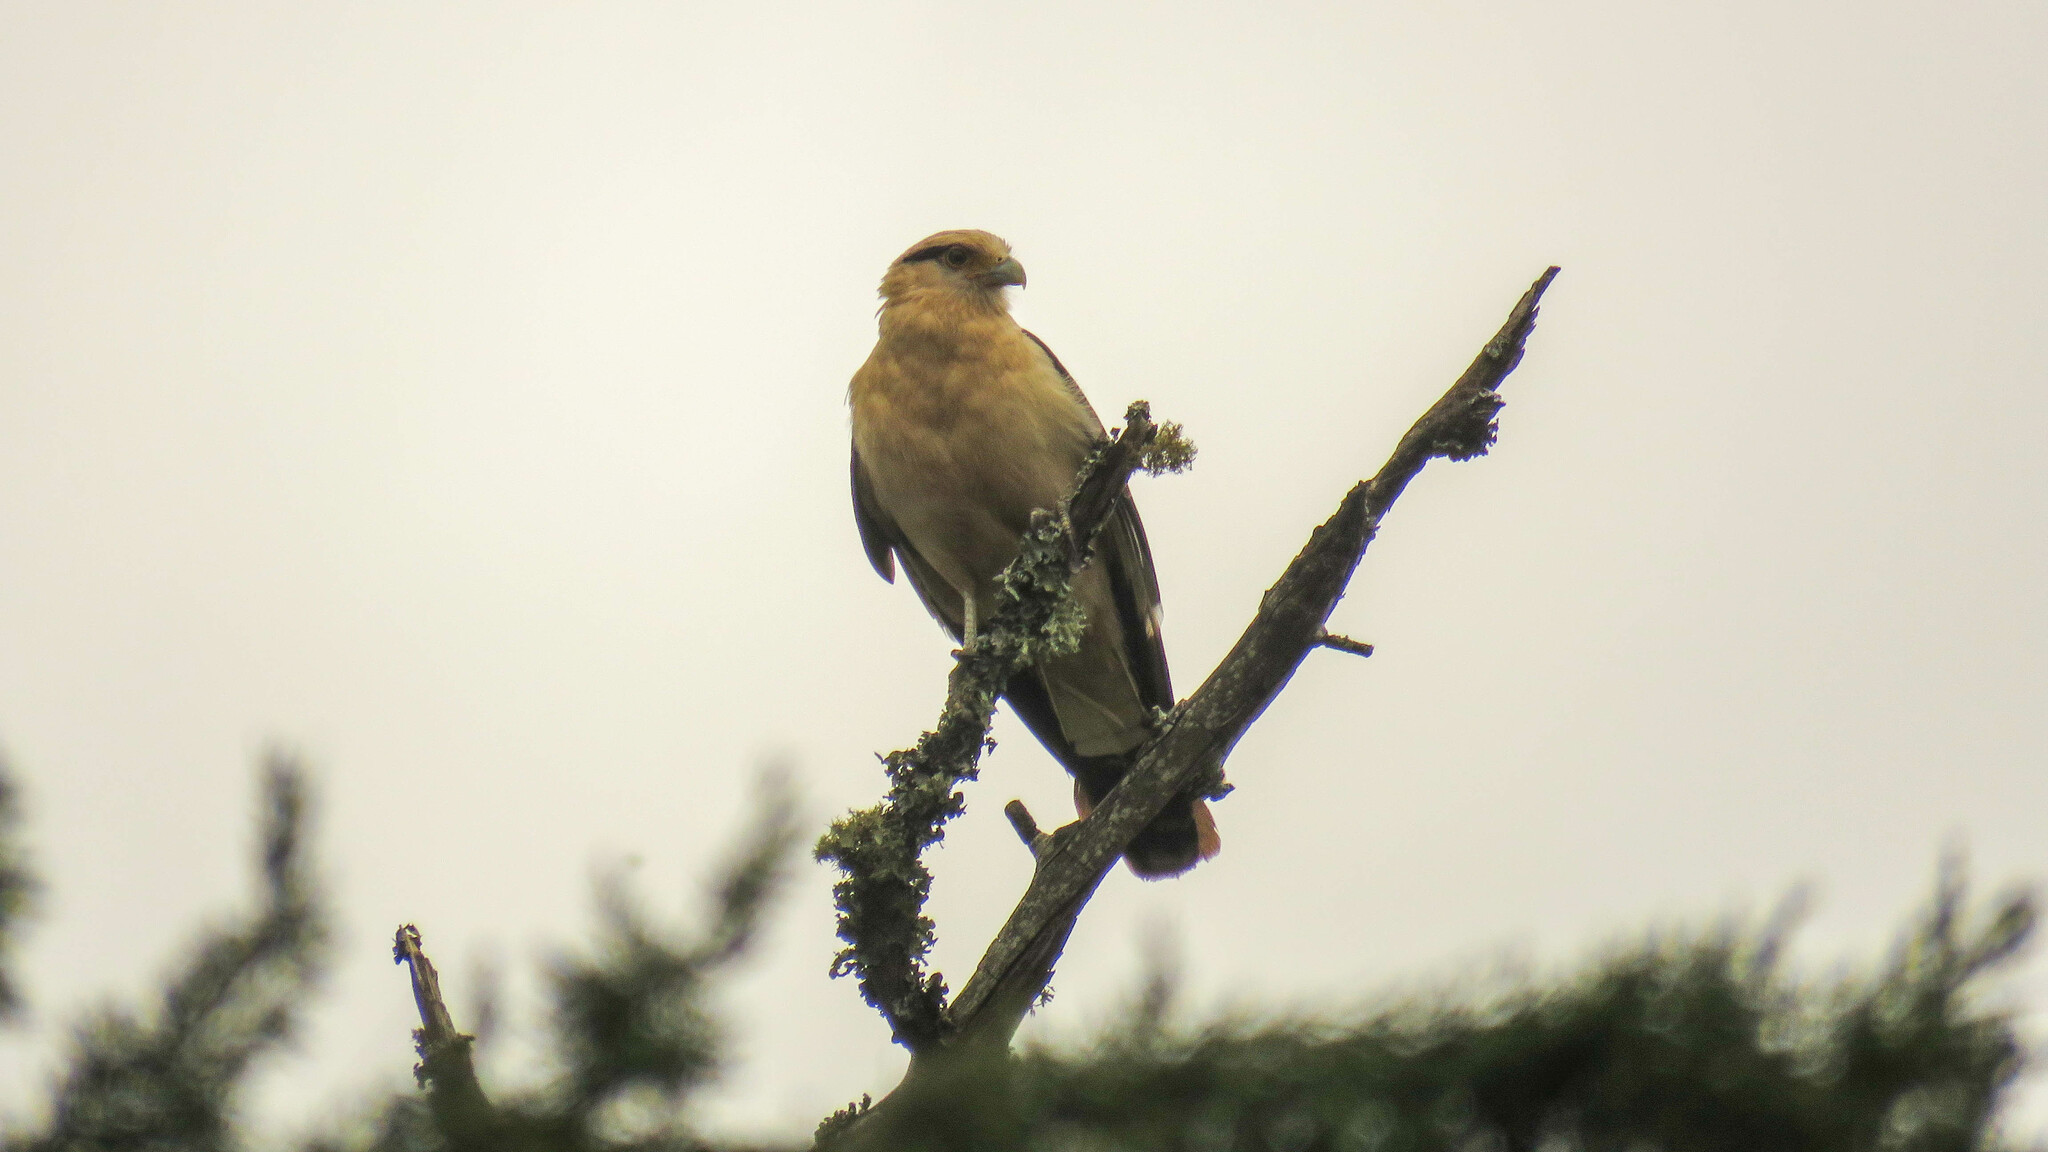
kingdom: Animalia
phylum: Chordata
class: Aves
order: Falconiformes
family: Falconidae
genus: Daptrius
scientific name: Daptrius
